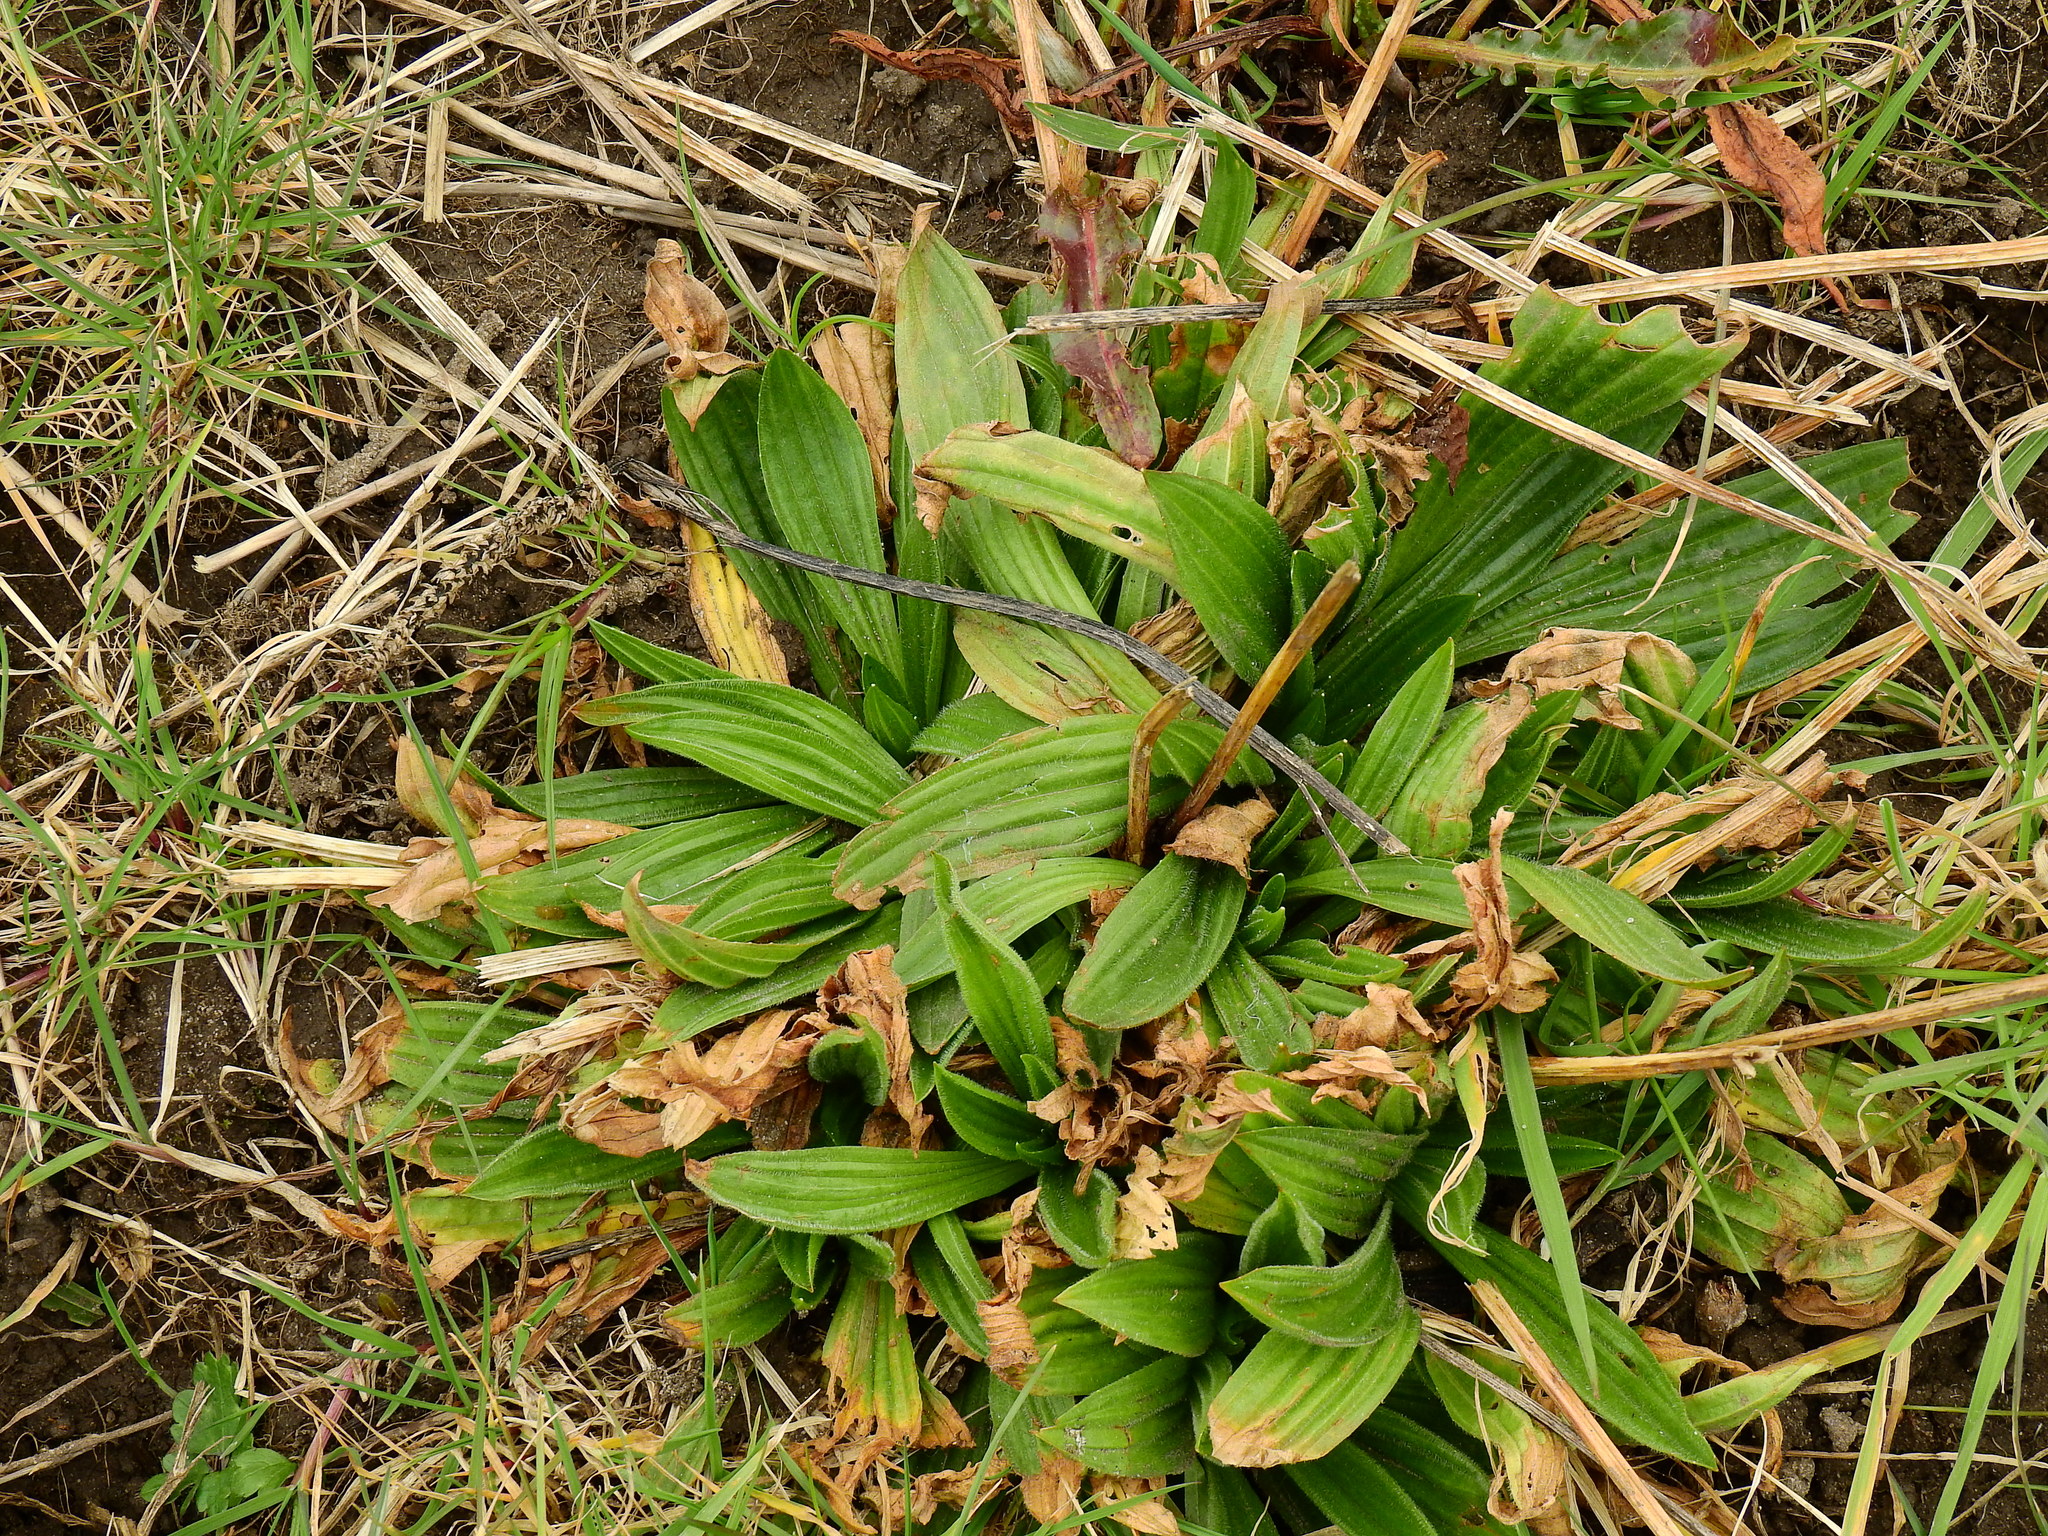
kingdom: Plantae
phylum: Tracheophyta
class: Magnoliopsida
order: Lamiales
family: Plantaginaceae
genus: Plantago
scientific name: Plantago lanceolata
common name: Ribwort plantain
